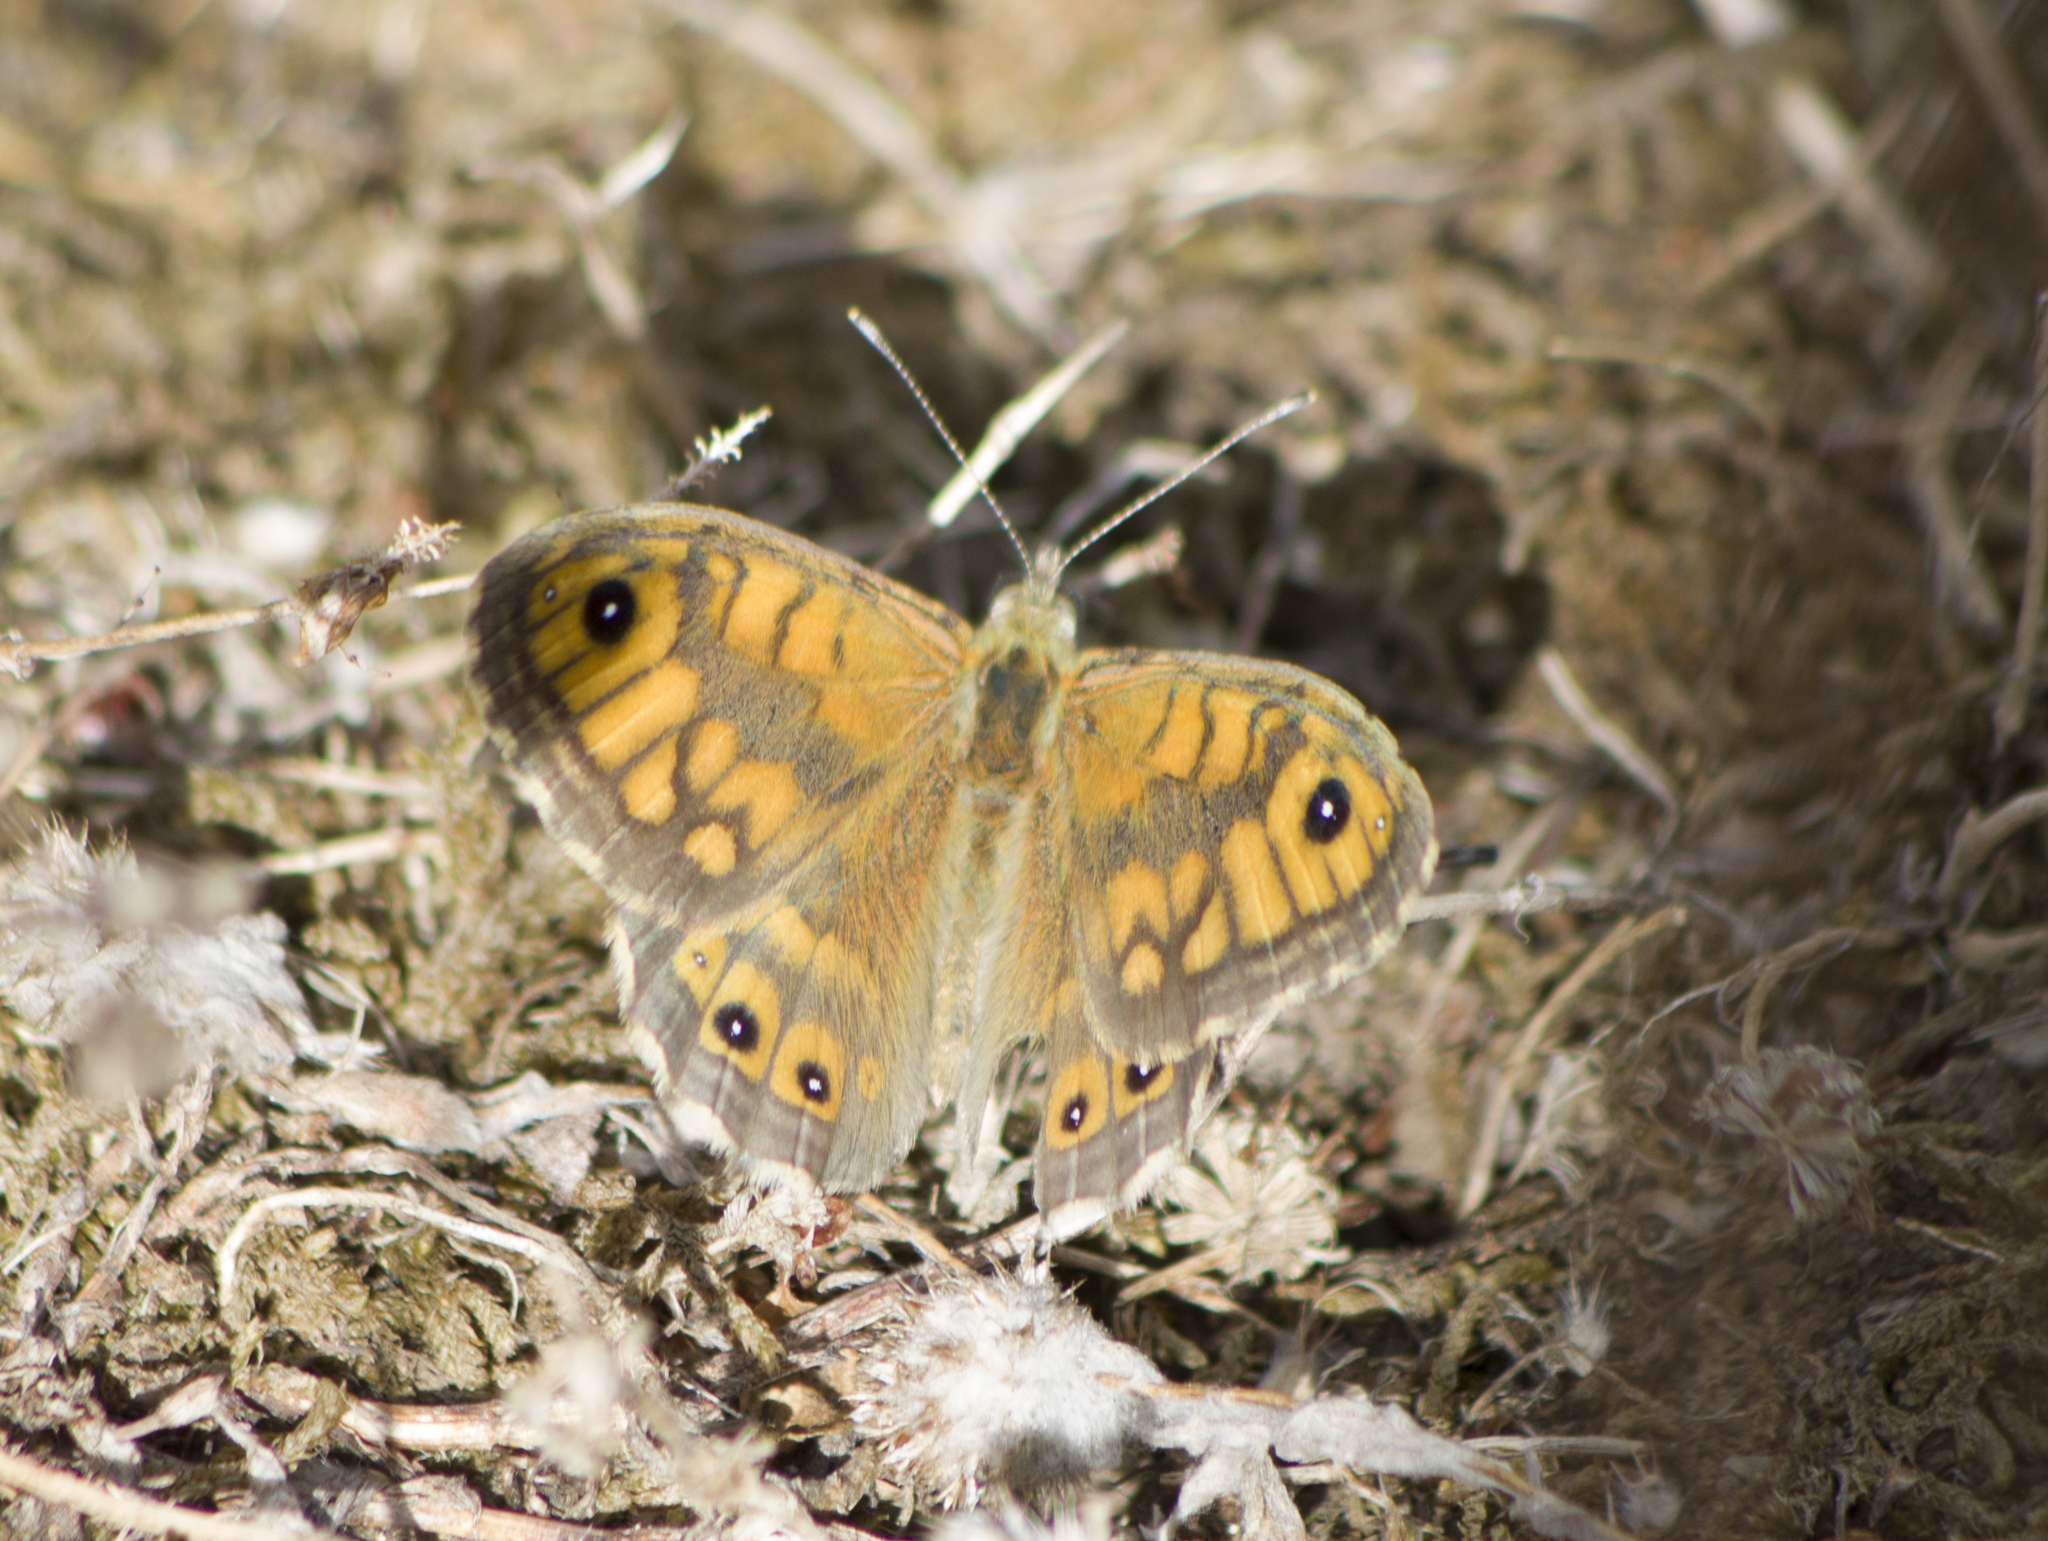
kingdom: Animalia
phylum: Arthropoda
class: Insecta
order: Lepidoptera
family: Nymphalidae
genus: Pararge
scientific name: Pararge Lasiommata megera
